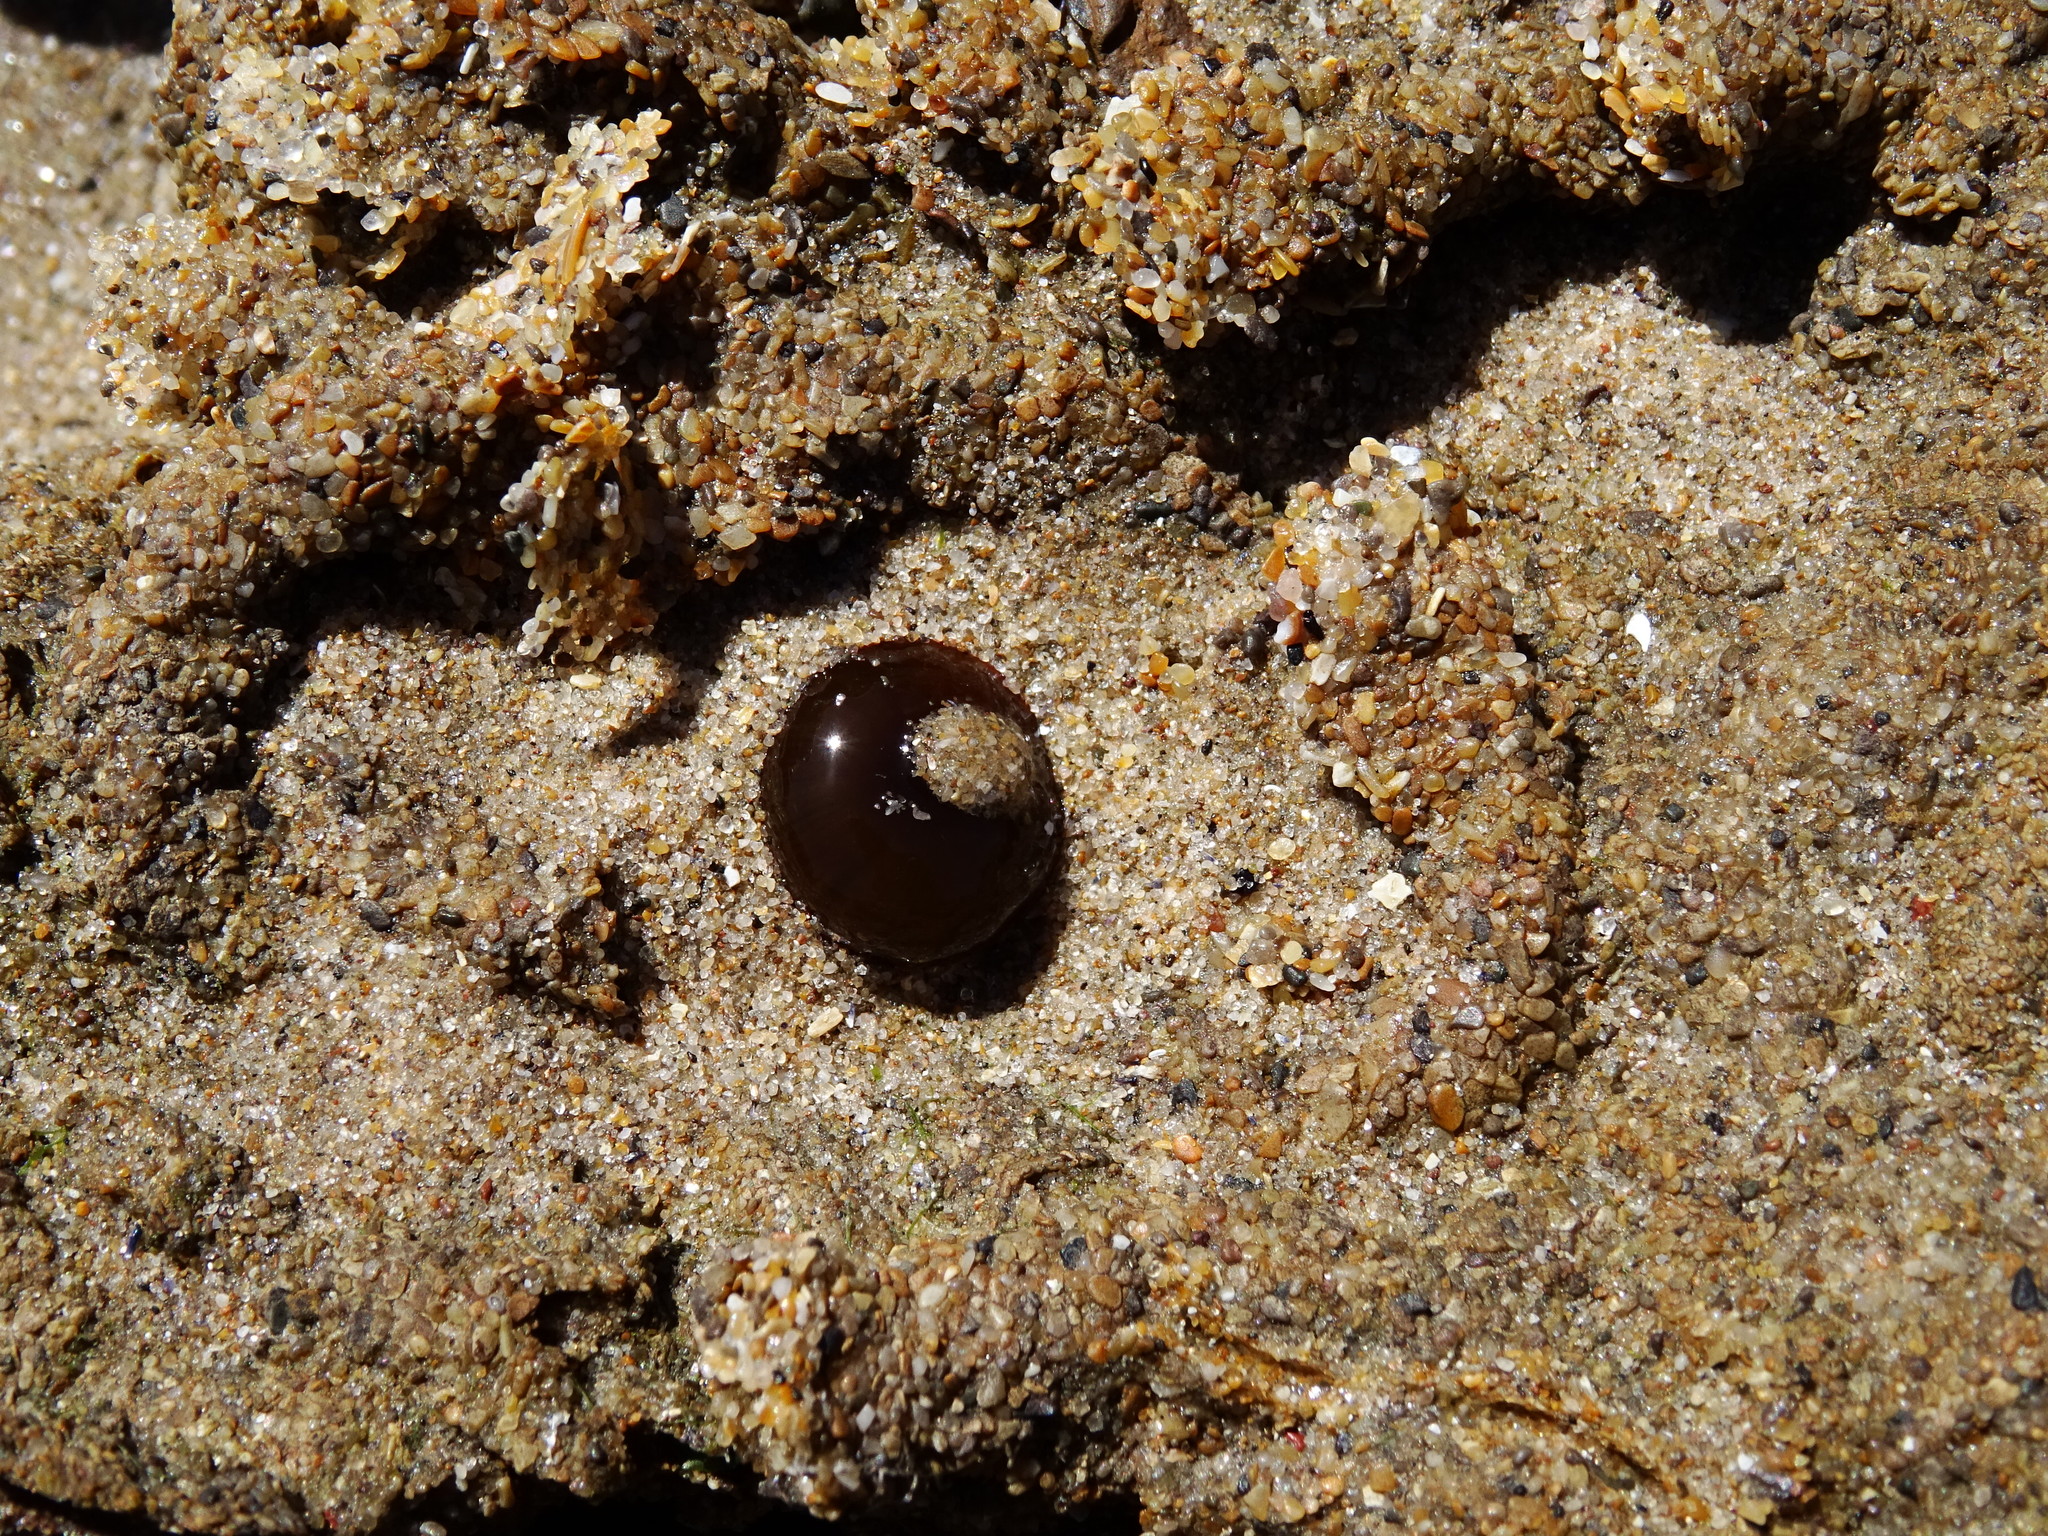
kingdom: Animalia
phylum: Cnidaria
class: Anthozoa
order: Actiniaria
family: Actiniidae
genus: Actinia
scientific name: Actinia equina
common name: Beadlet anemone
